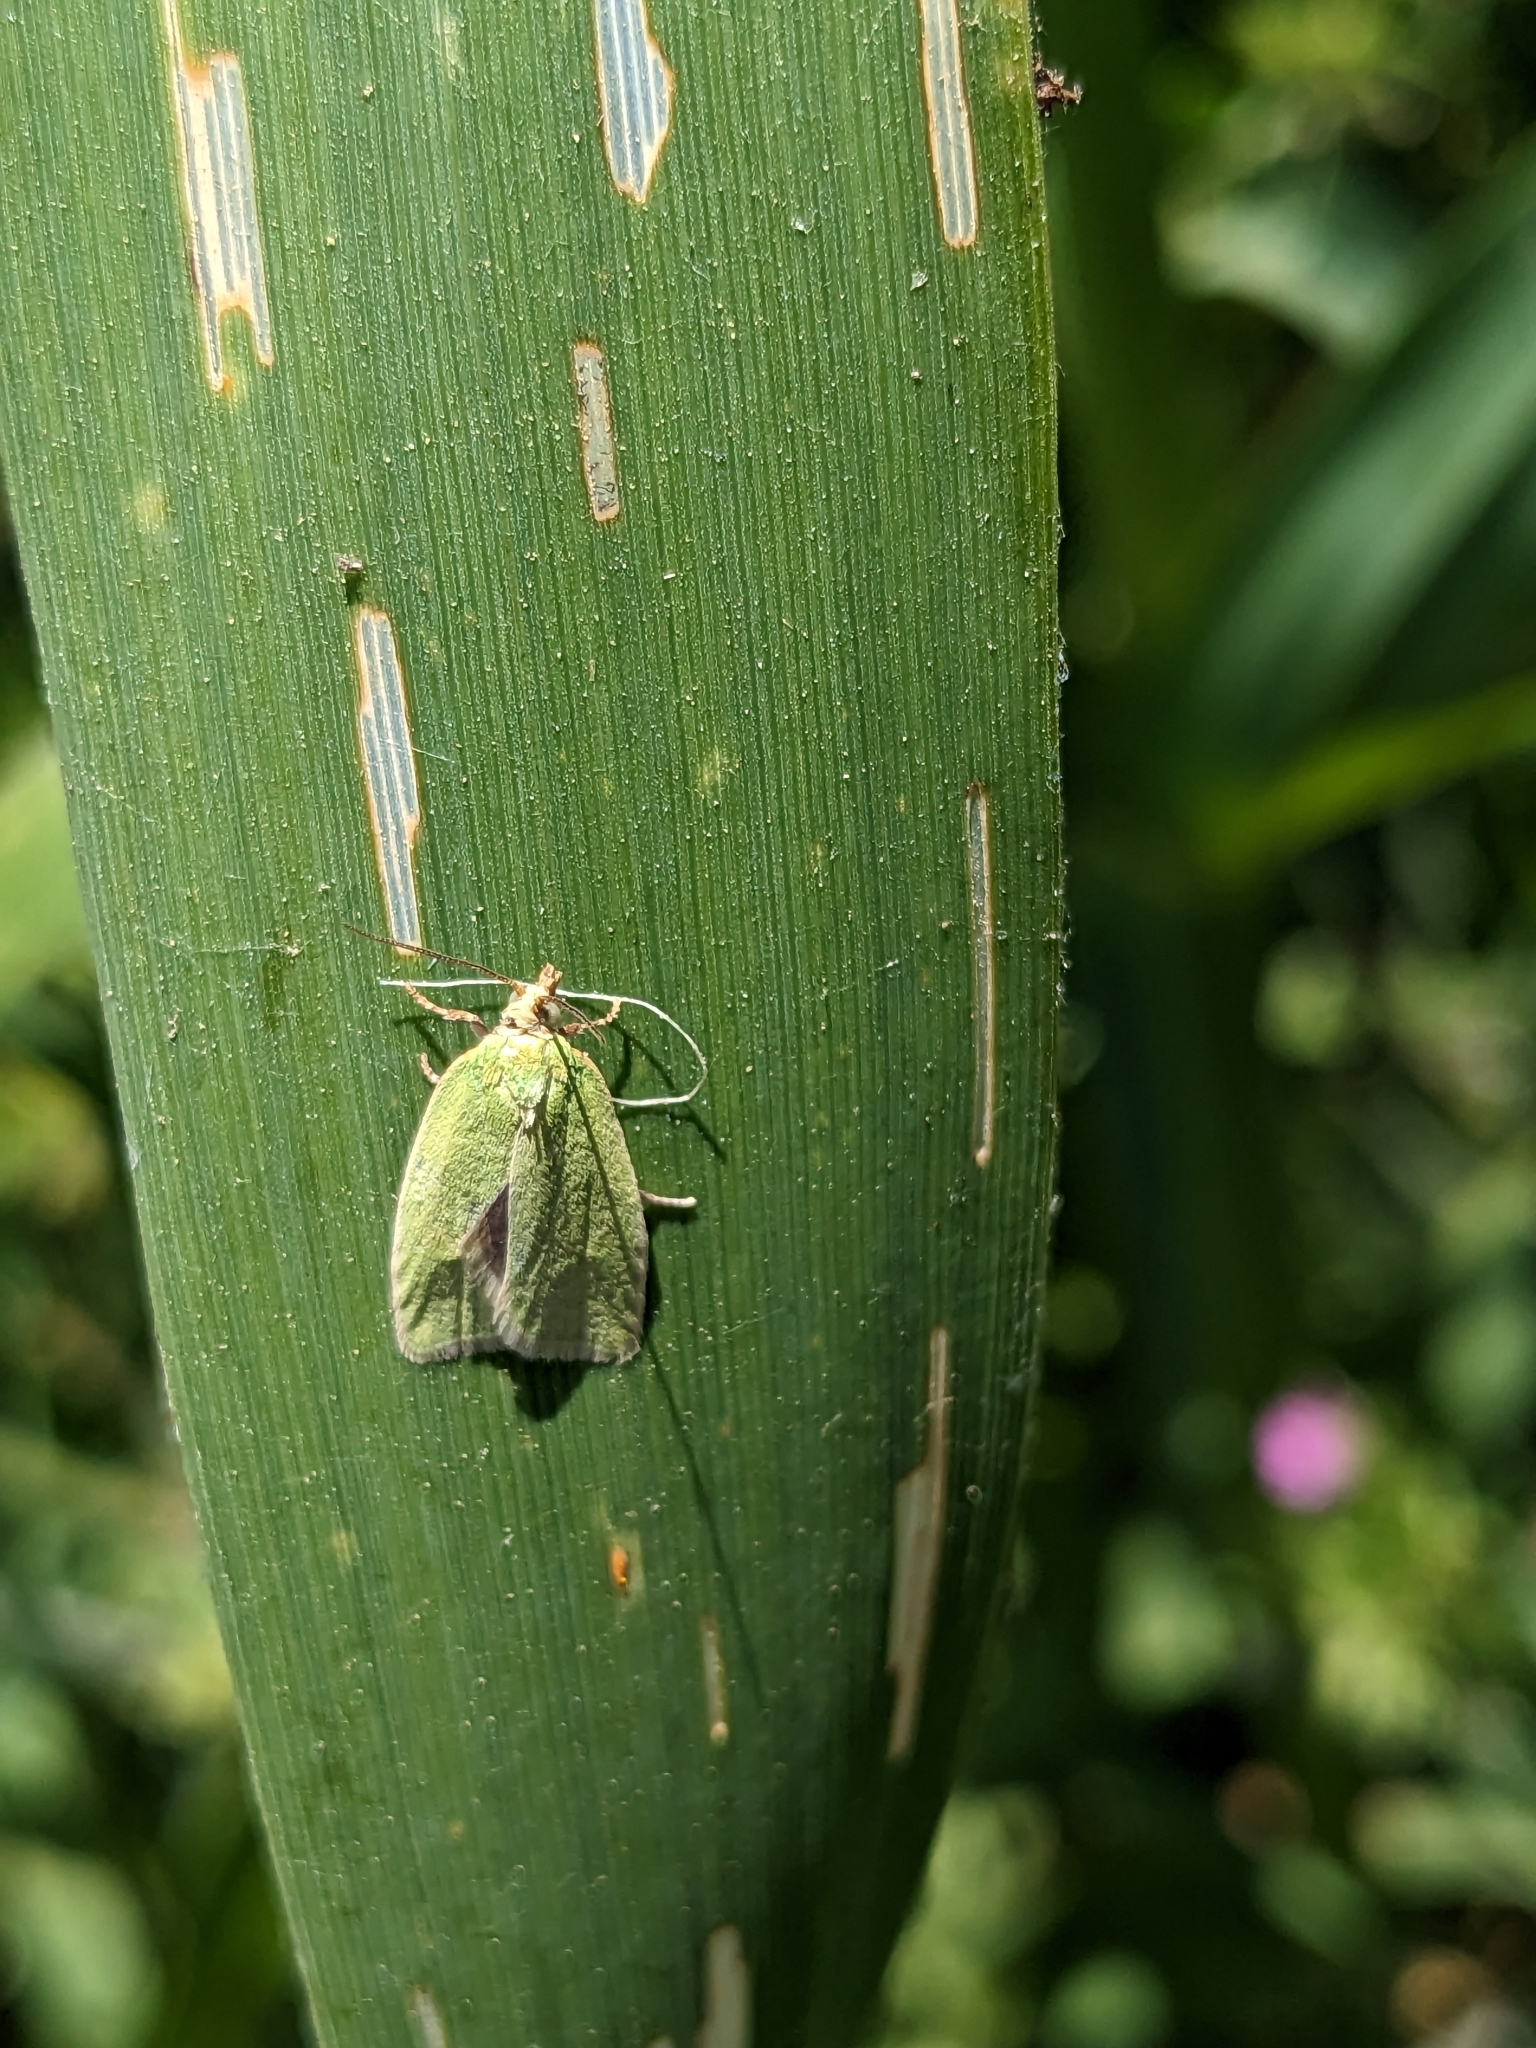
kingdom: Animalia
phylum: Arthropoda
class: Insecta
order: Lepidoptera
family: Tortricidae
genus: Tortrix
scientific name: Tortrix viridana
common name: Green oak tortrix
